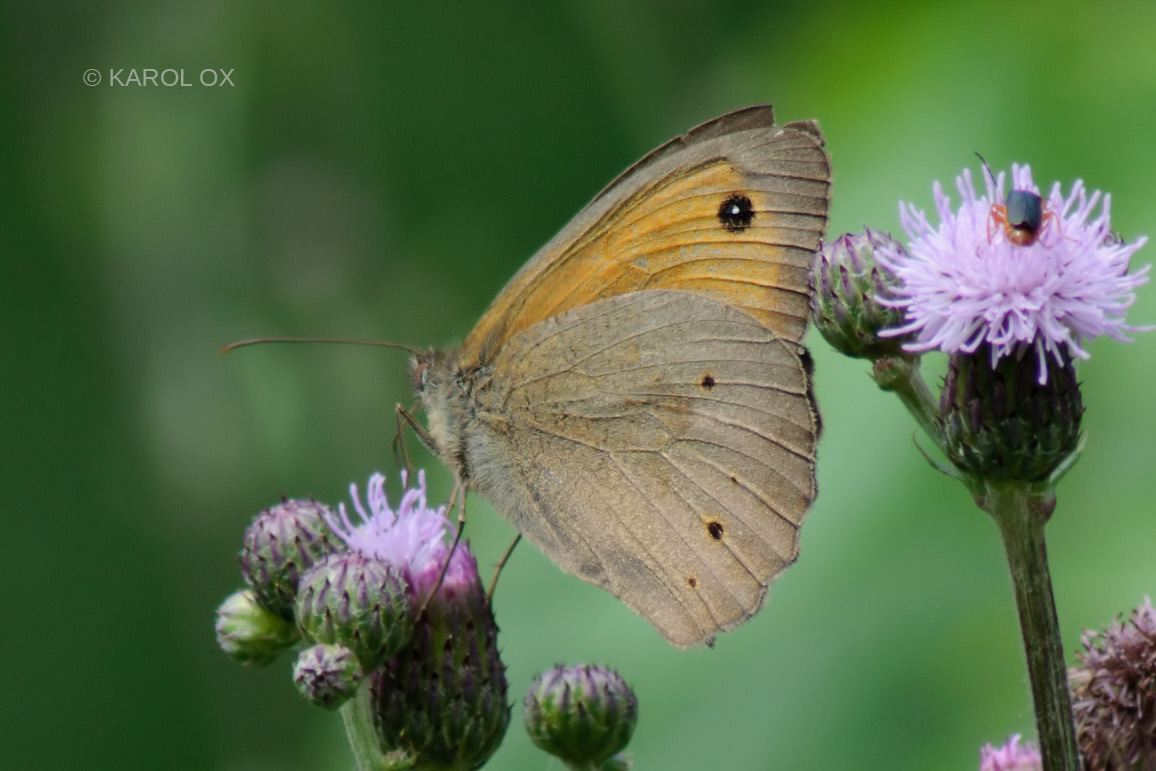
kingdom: Animalia
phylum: Arthropoda
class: Insecta
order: Lepidoptera
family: Nymphalidae
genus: Maniola
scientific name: Maniola jurtina
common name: Meadow brown
